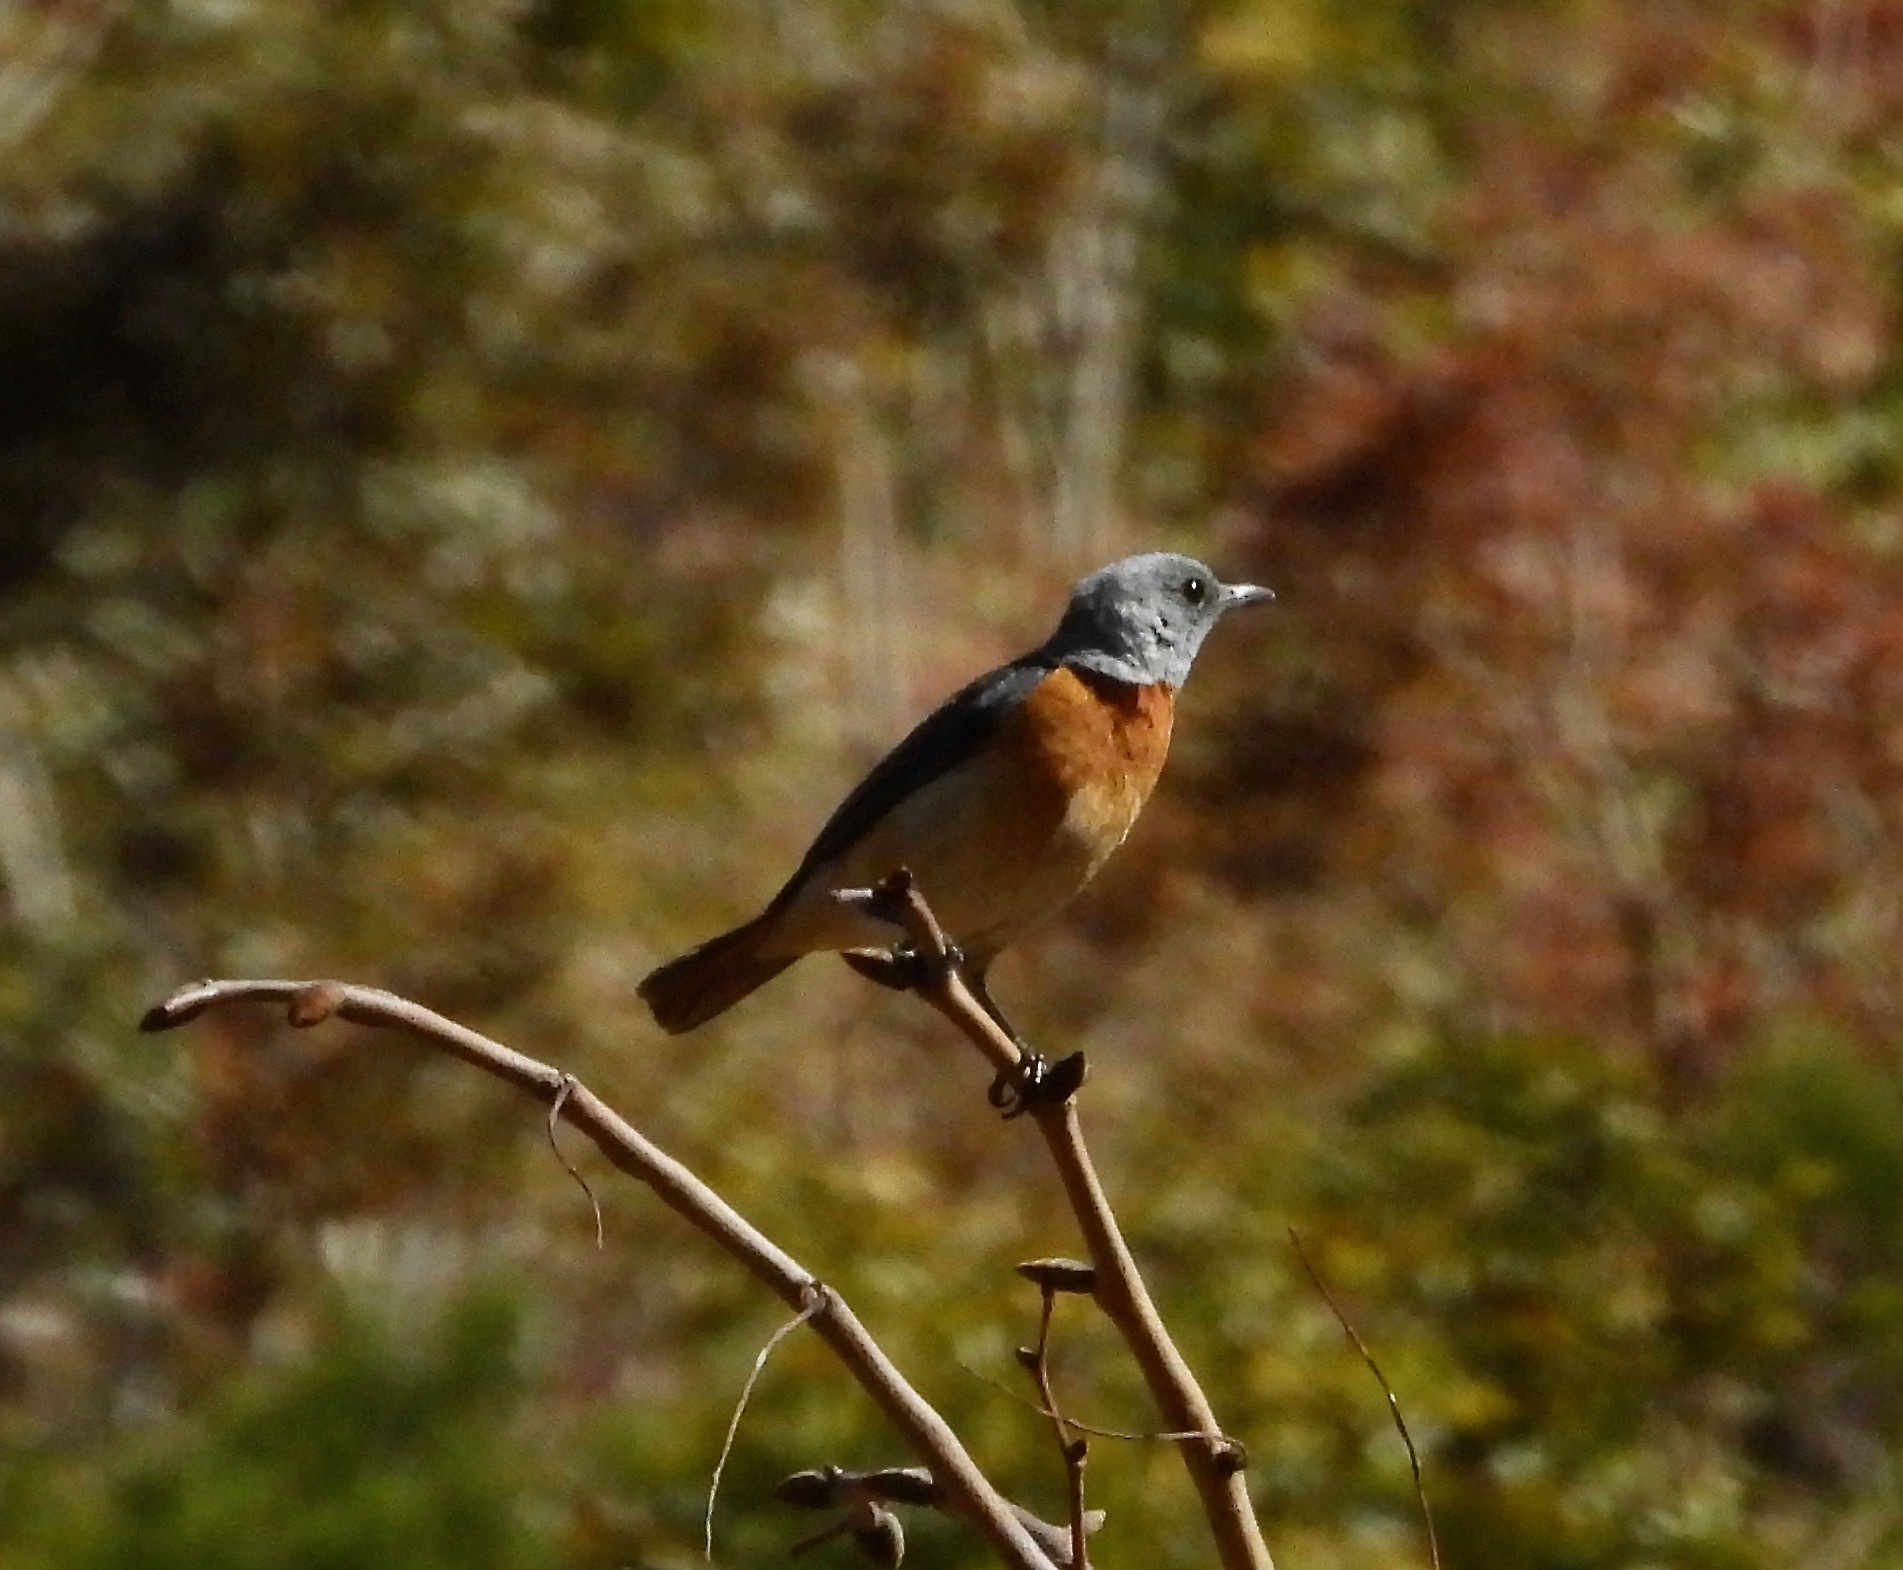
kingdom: Animalia
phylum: Chordata
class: Aves
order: Passeriformes
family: Muscicapidae
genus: Monticola
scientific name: Monticola angolensis
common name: Miombo rock thrush
